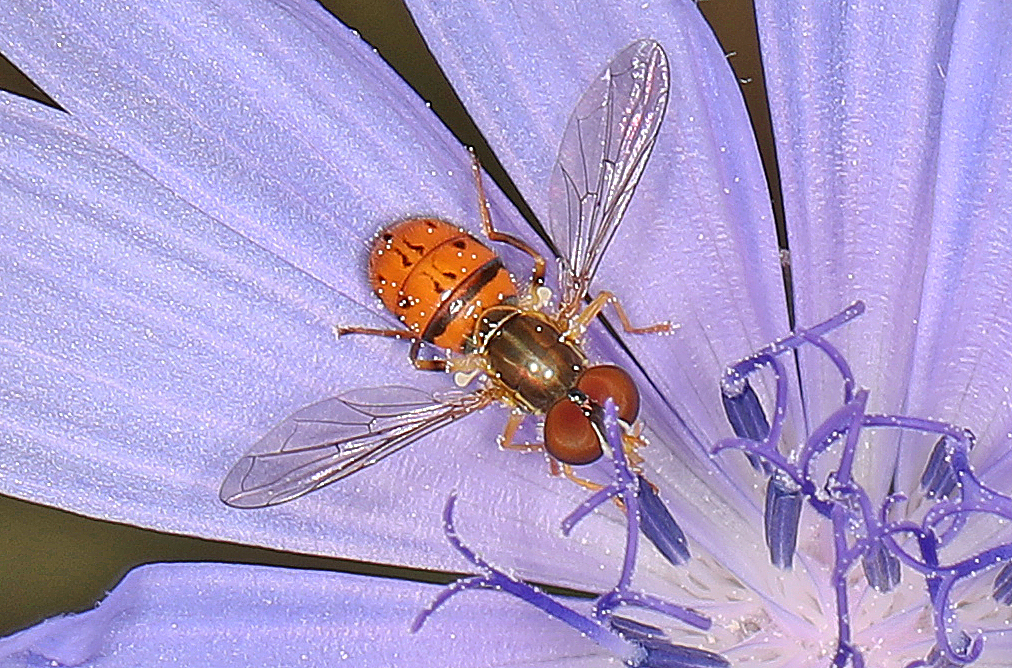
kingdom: Animalia
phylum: Arthropoda
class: Insecta
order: Diptera
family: Syrphidae
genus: Toxomerus
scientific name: Toxomerus boscii
